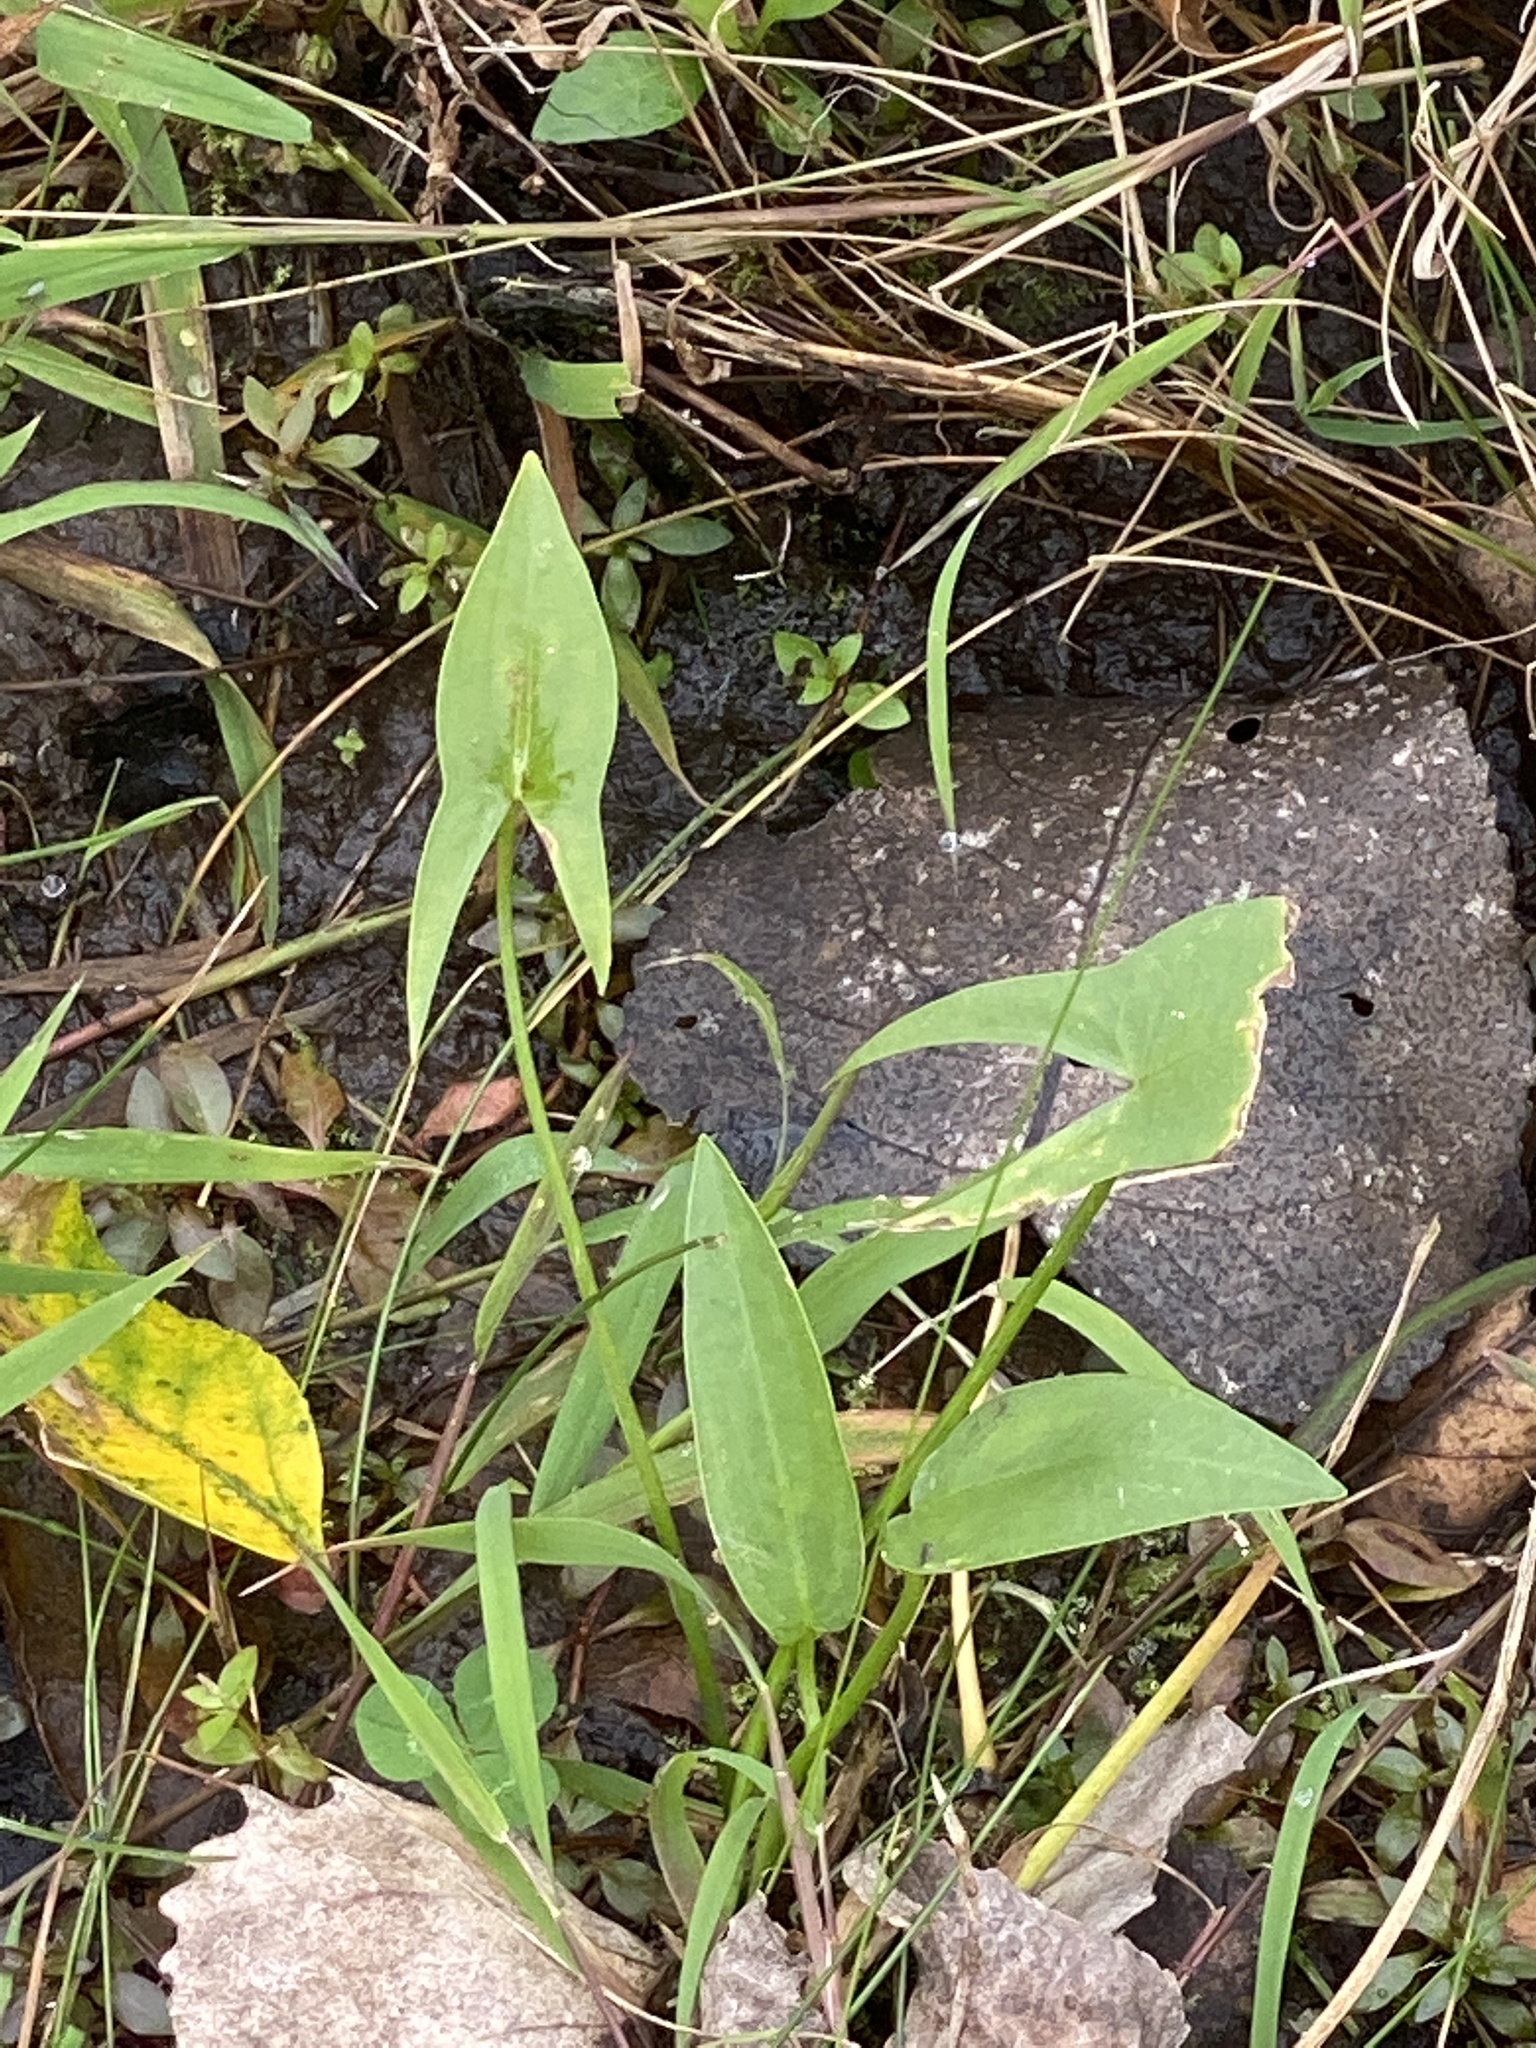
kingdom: Plantae
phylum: Tracheophyta
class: Liliopsida
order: Alismatales
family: Alismataceae
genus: Sagittaria
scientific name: Sagittaria latifolia
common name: Duck-potato
